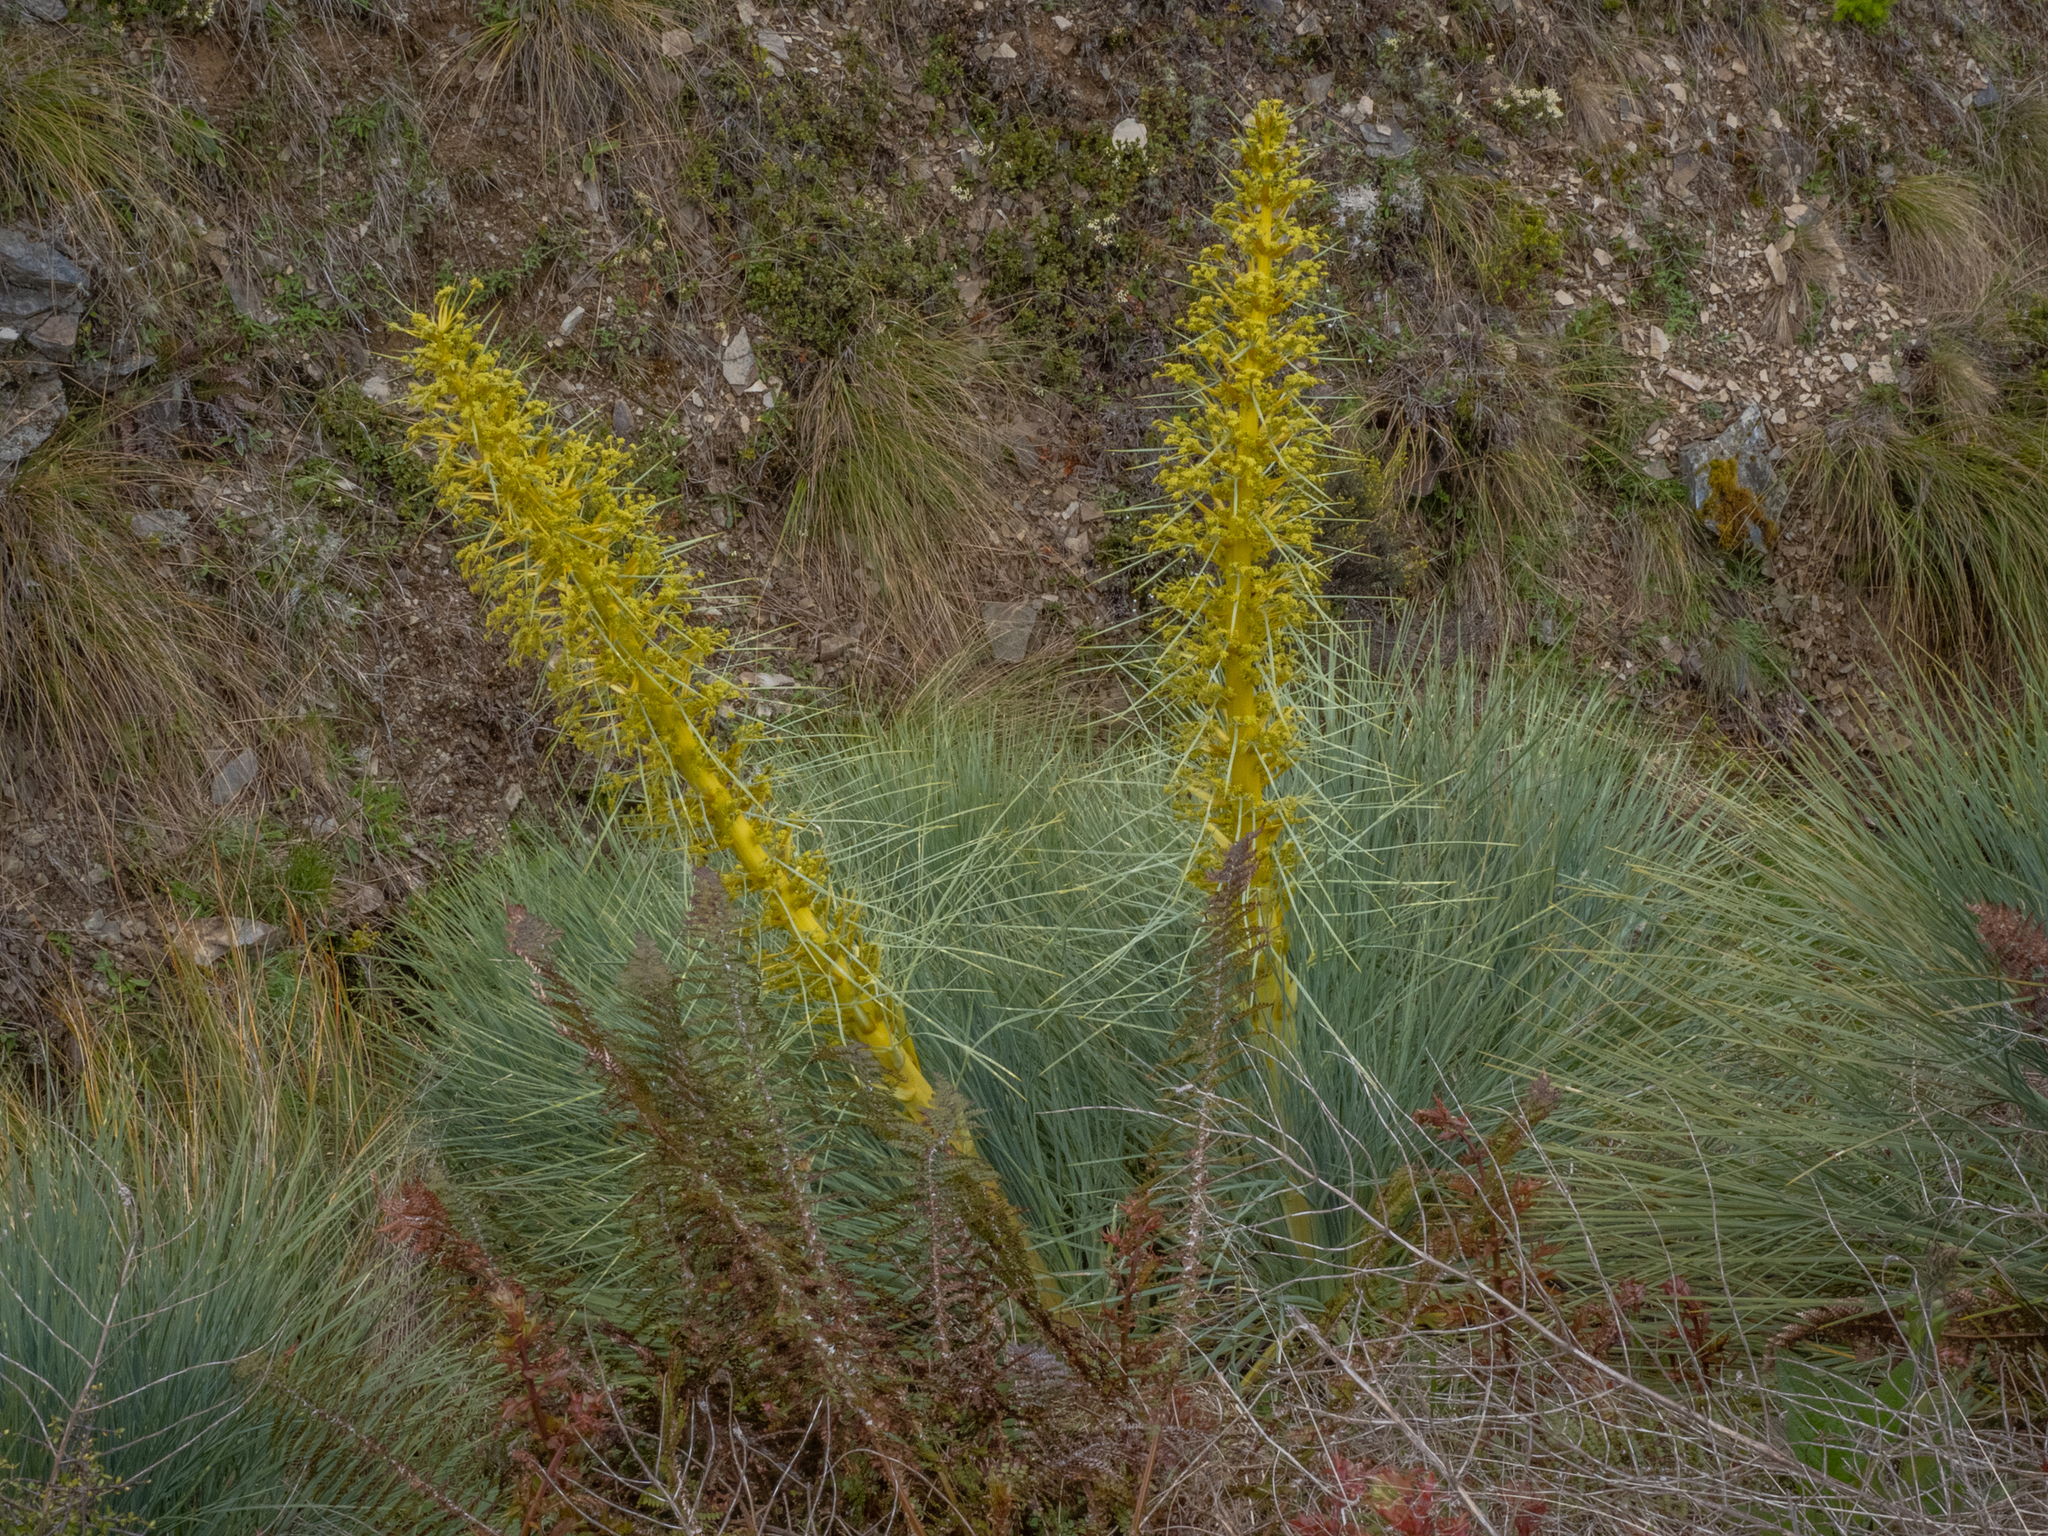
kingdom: Plantae
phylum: Tracheophyta
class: Magnoliopsida
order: Apiales
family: Apiaceae
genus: Aciphylla
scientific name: Aciphylla glaucescens
